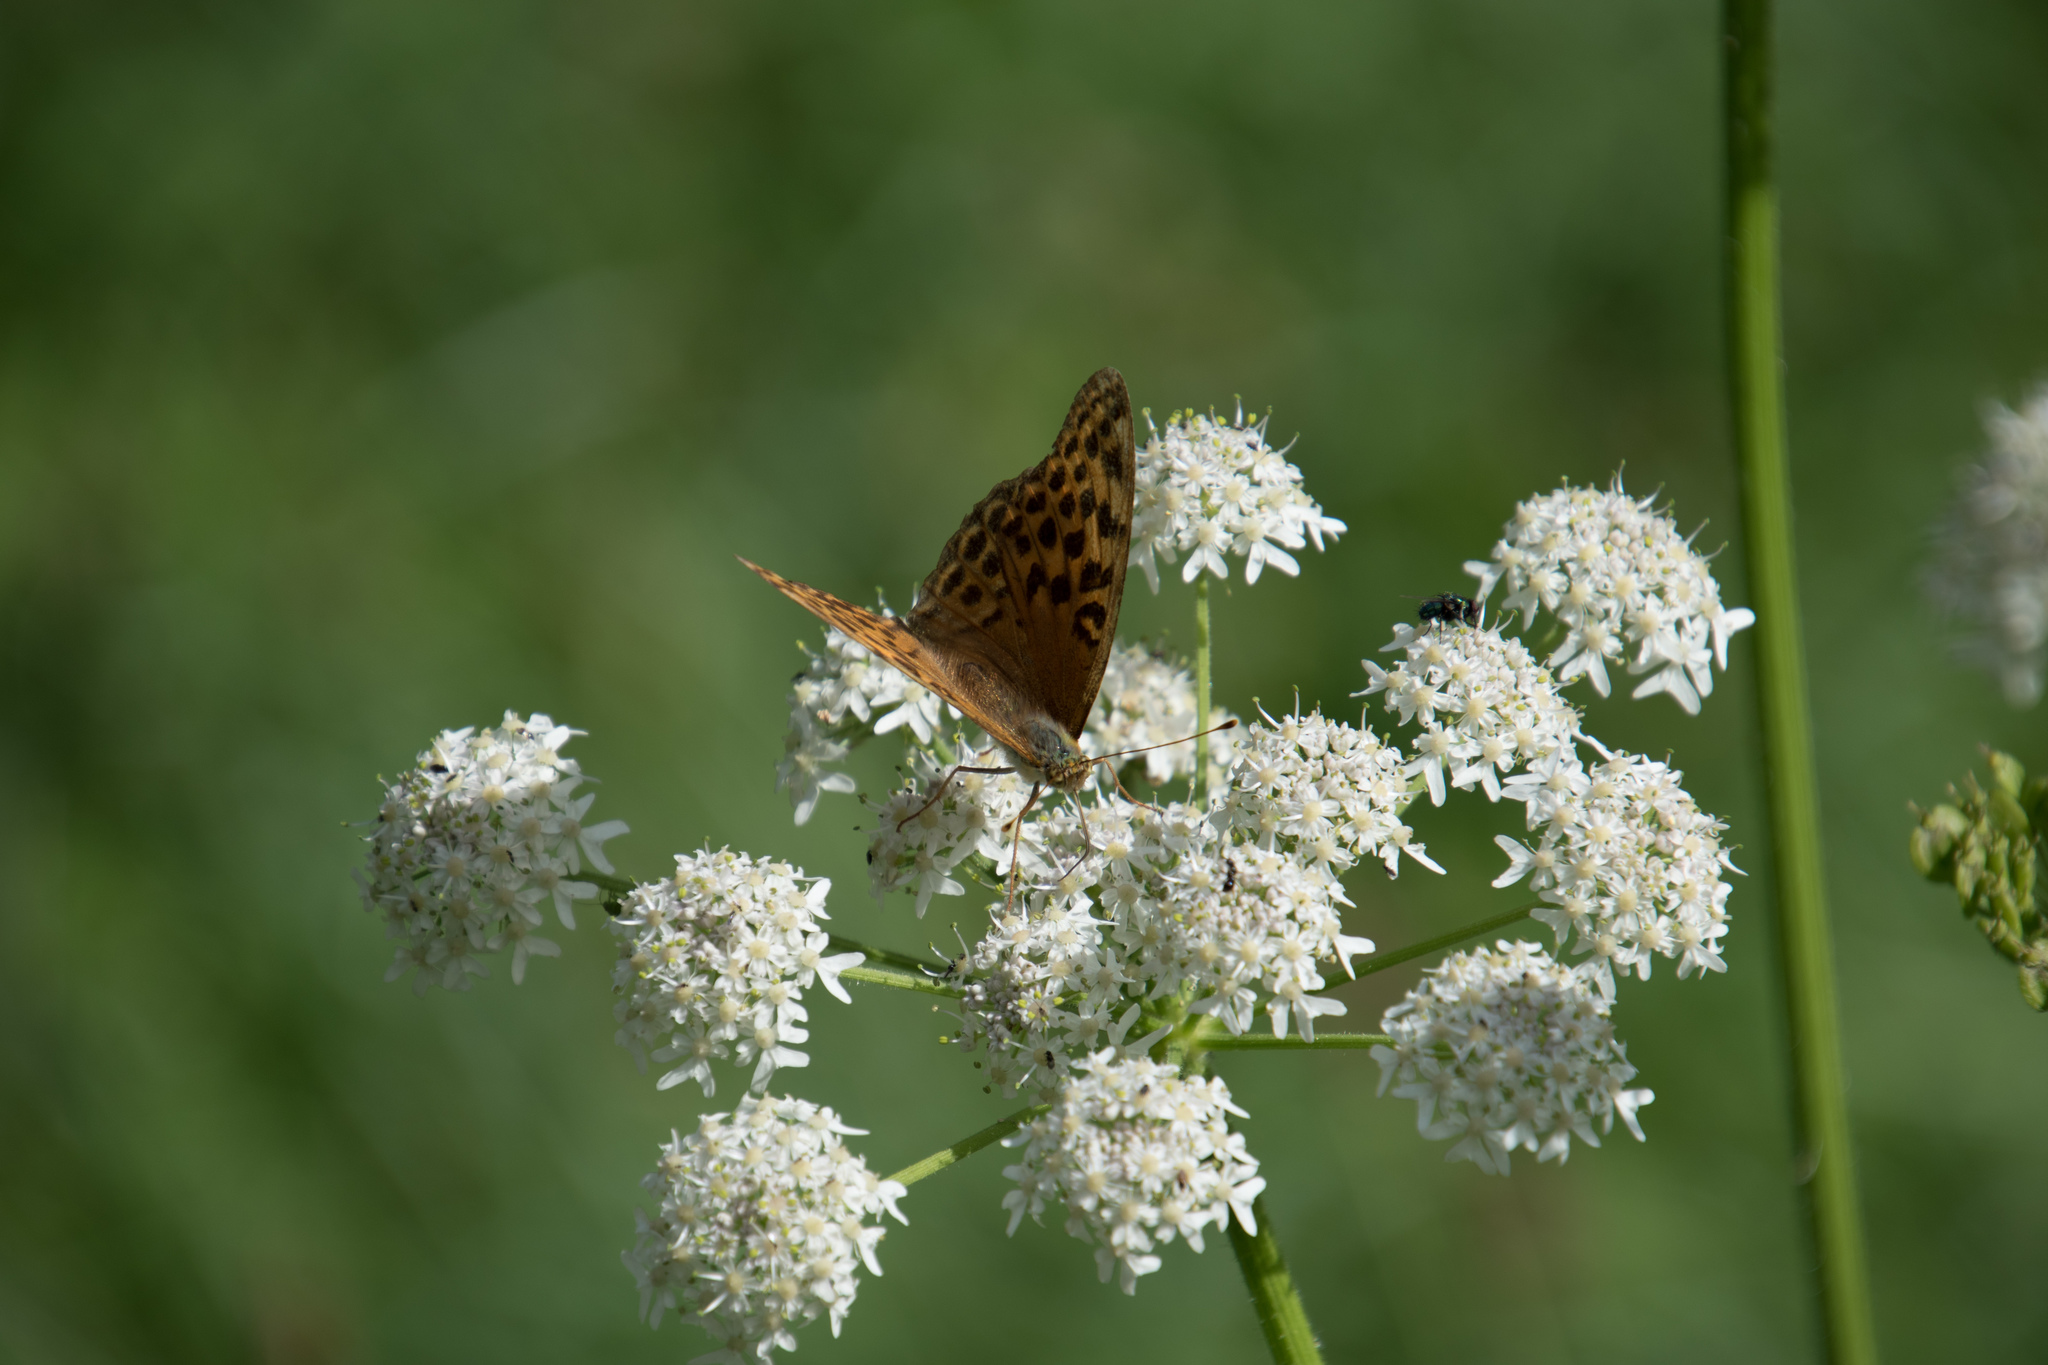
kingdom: Animalia
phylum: Arthropoda
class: Insecta
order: Lepidoptera
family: Nymphalidae
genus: Argynnis
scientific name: Argynnis paphia
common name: Silver-washed fritillary
